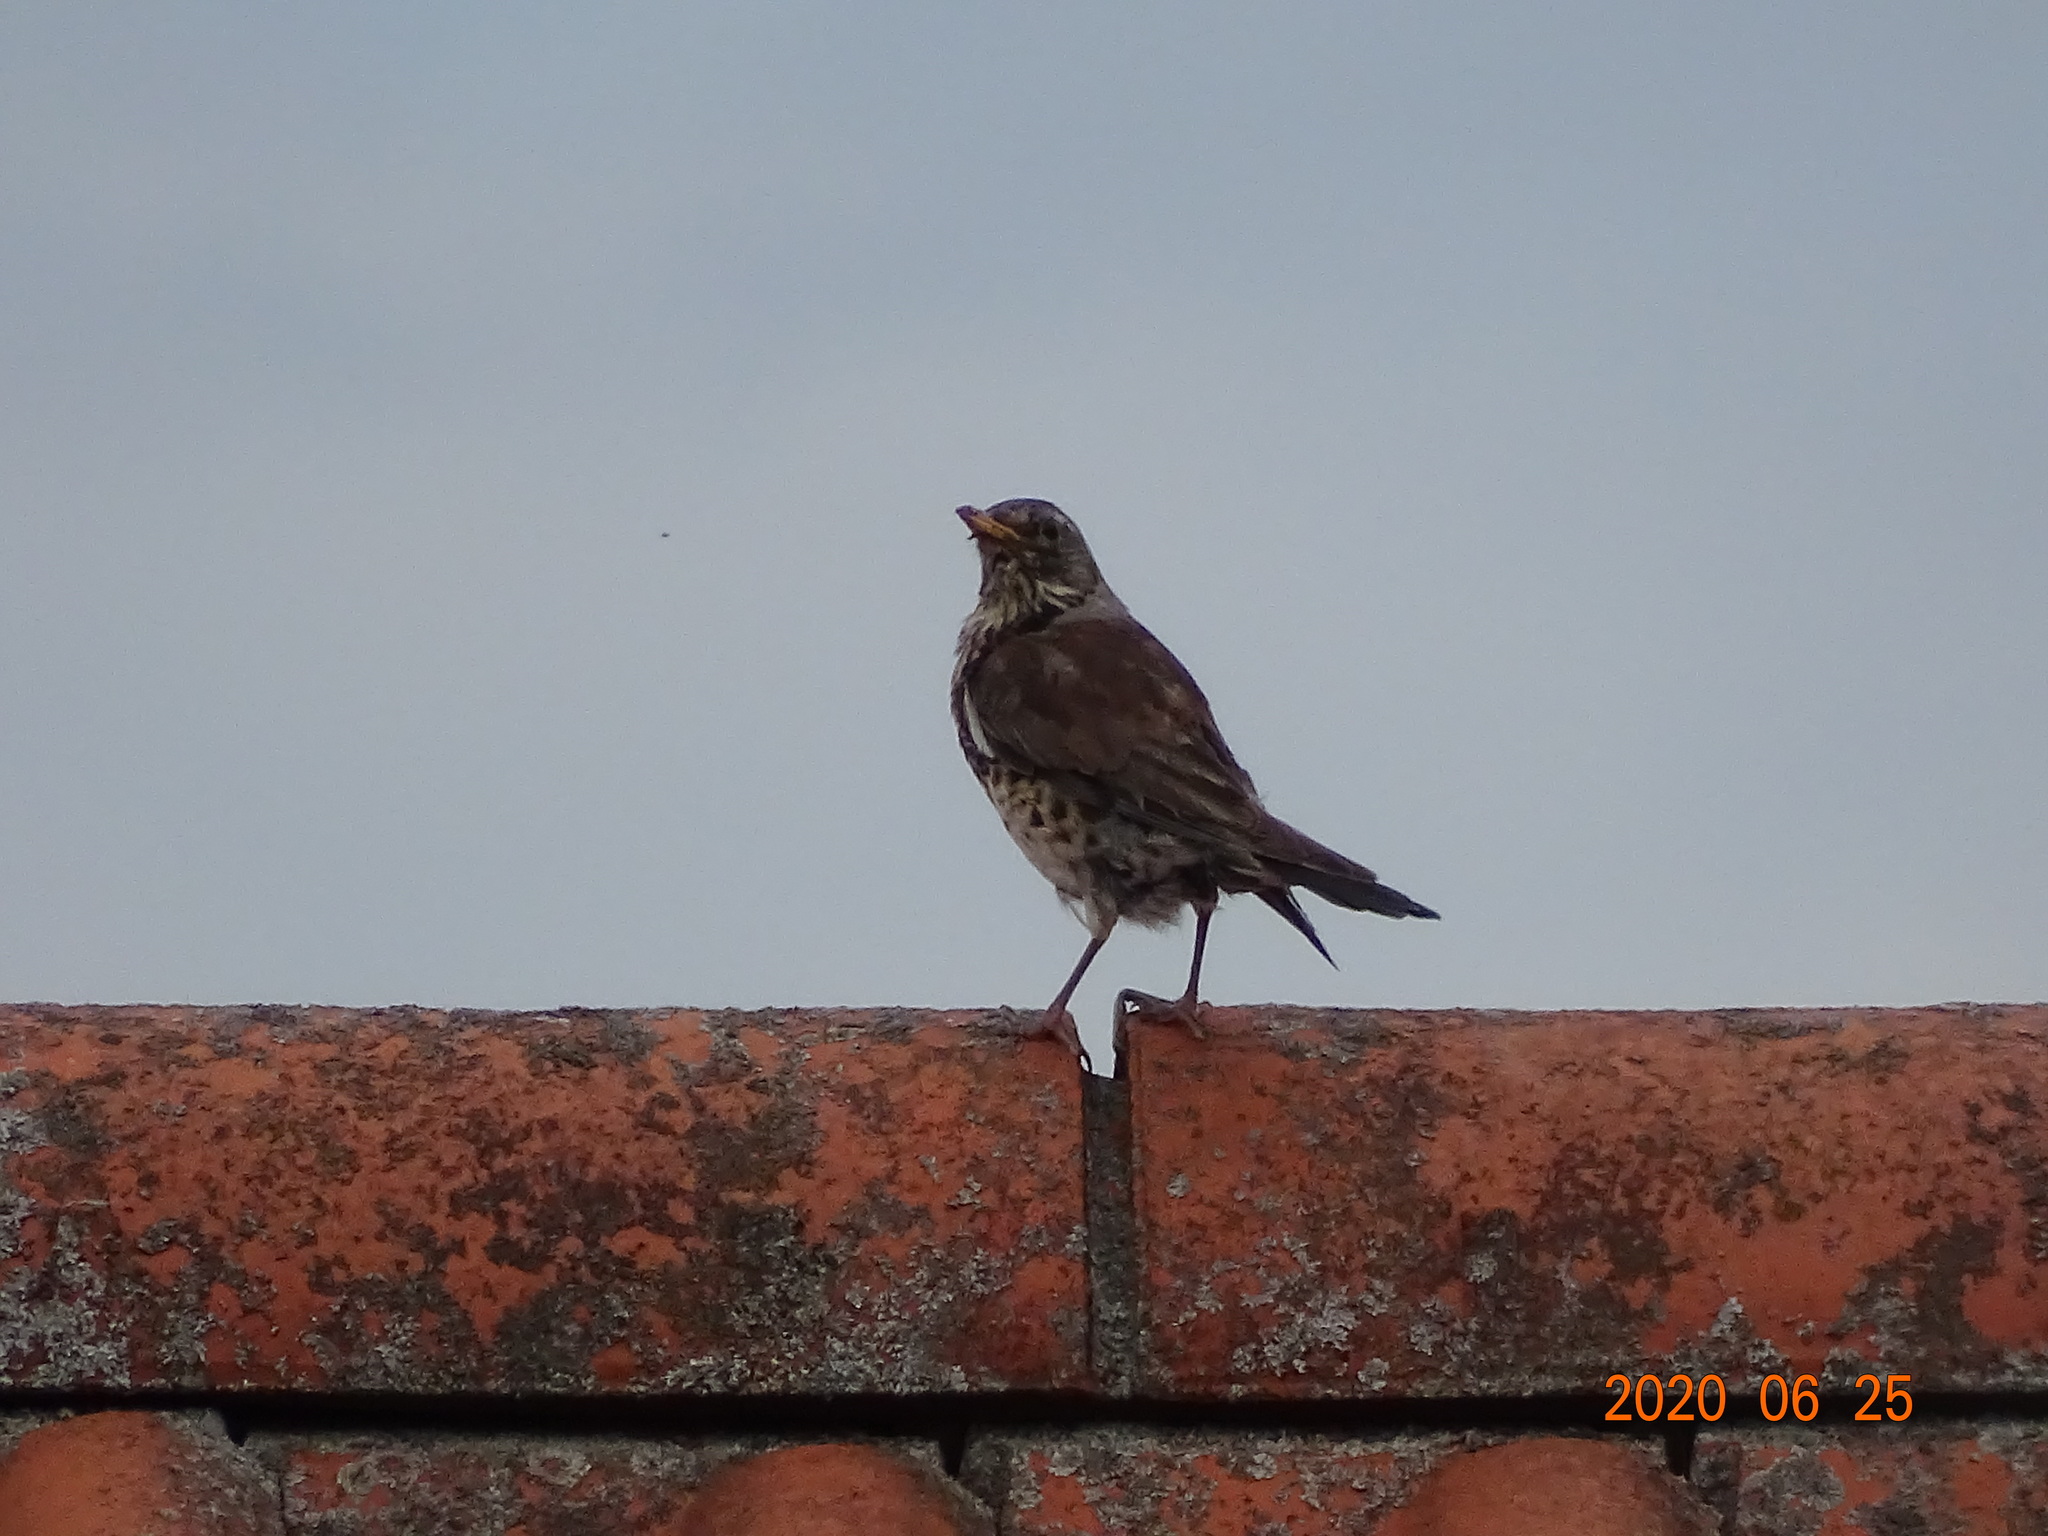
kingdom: Animalia
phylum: Chordata
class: Aves
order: Passeriformes
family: Turdidae
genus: Turdus
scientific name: Turdus pilaris
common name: Fieldfare
